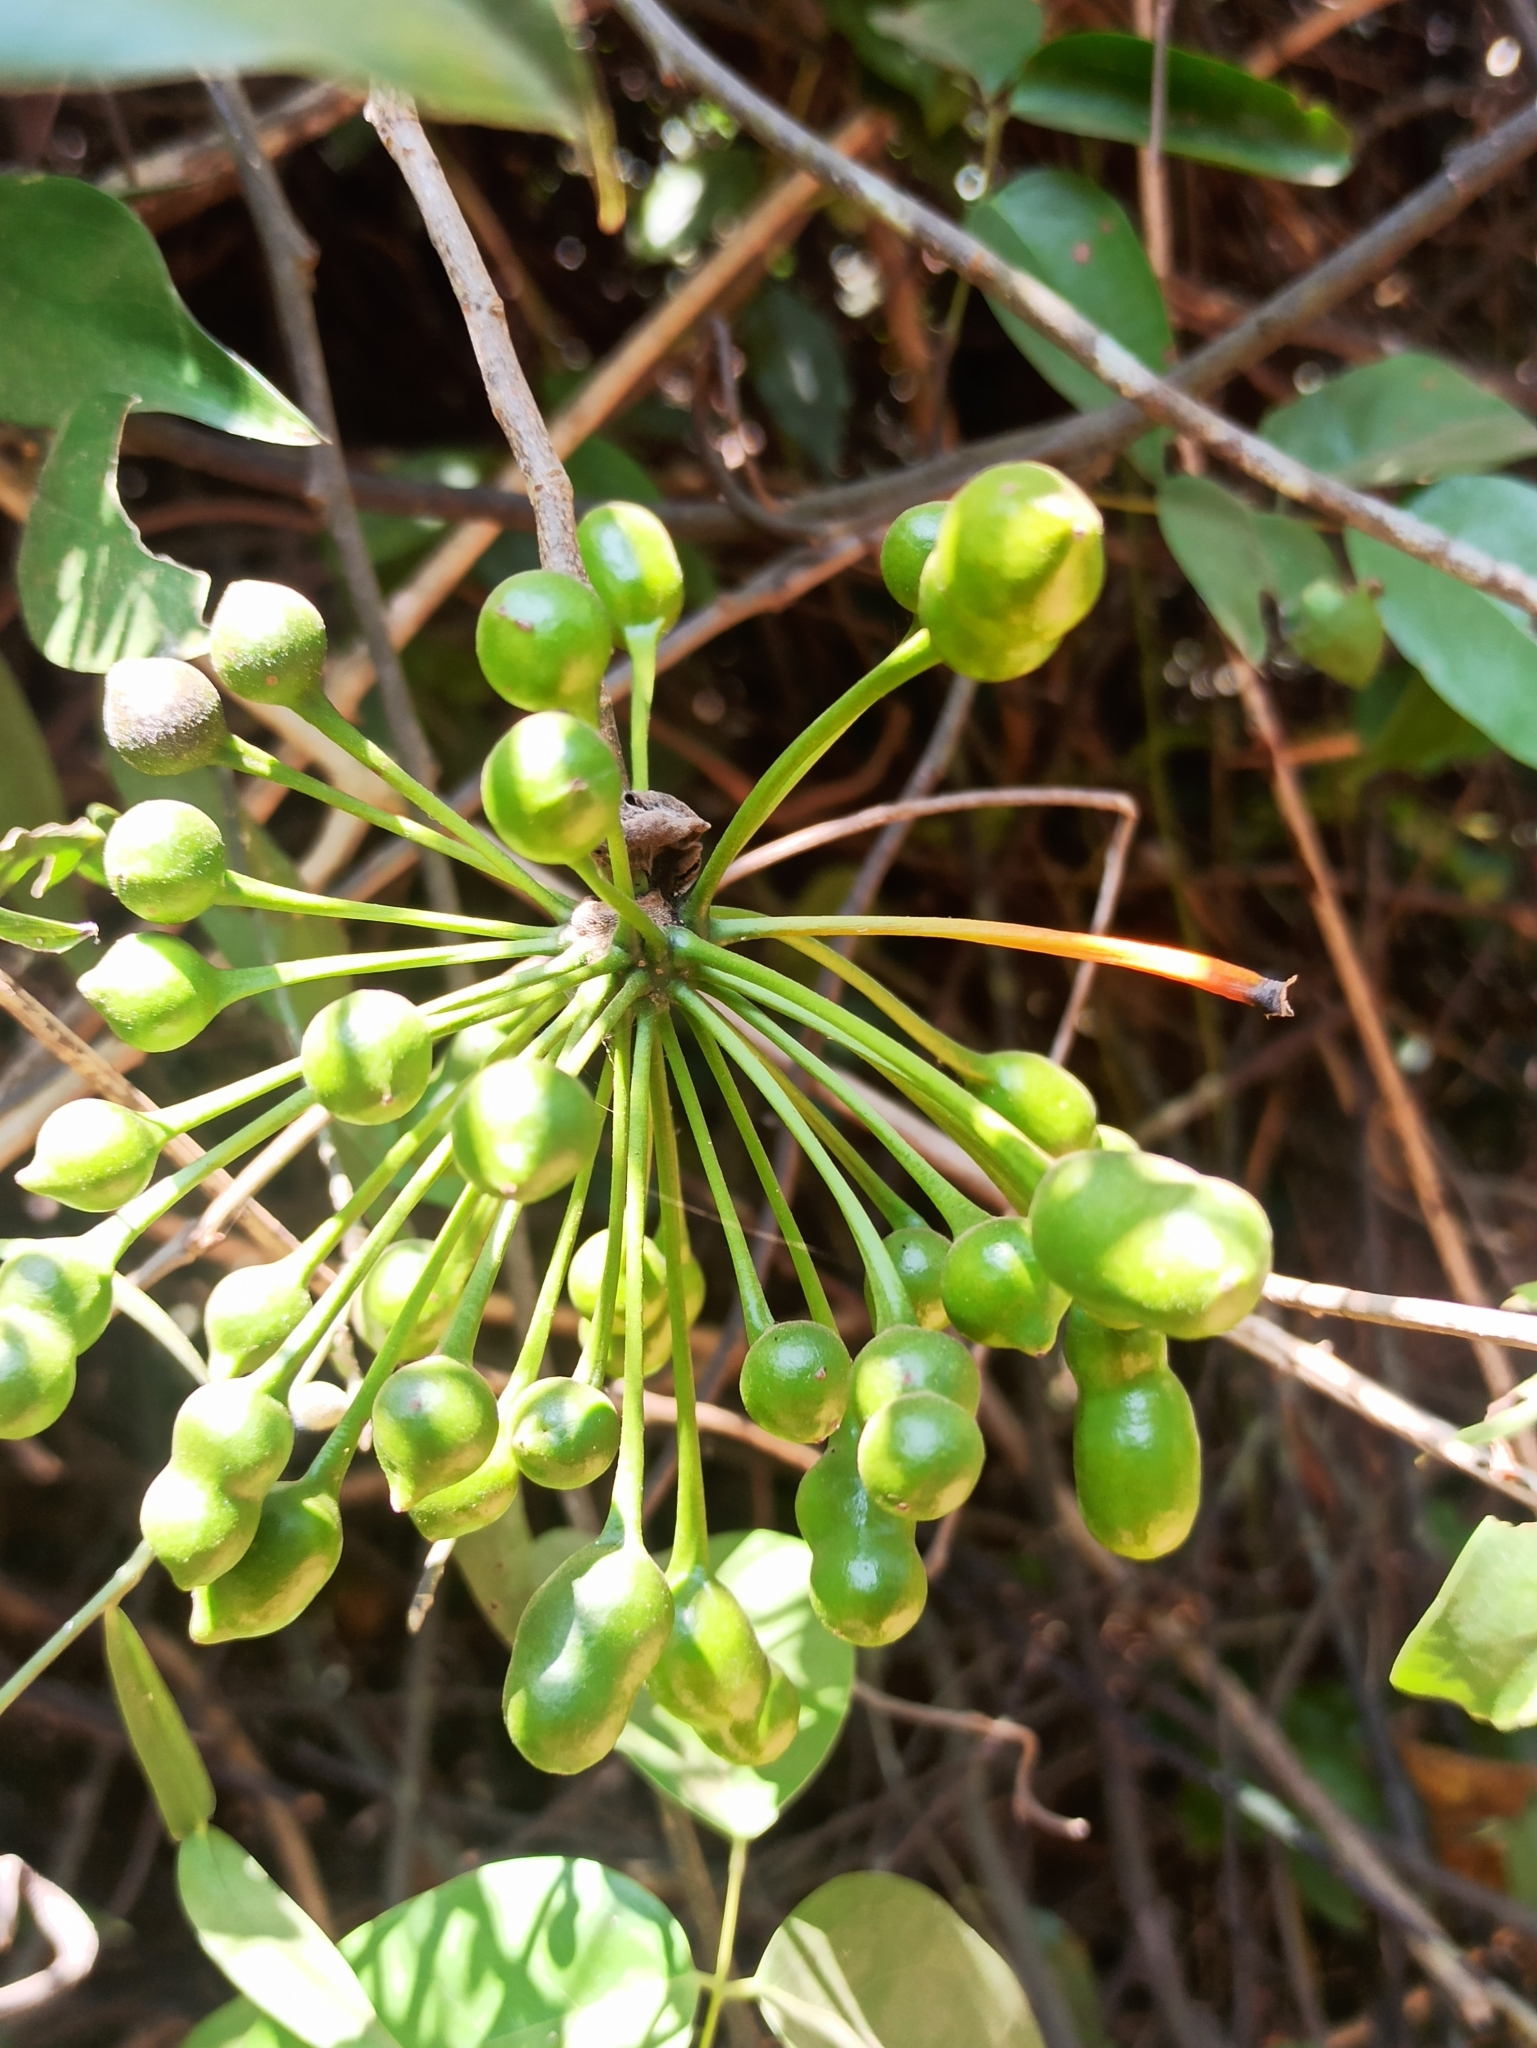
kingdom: Plantae
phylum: Tracheophyta
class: Magnoliopsida
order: Magnoliales
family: Annonaceae
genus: Uvaria
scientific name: Uvaria narum
